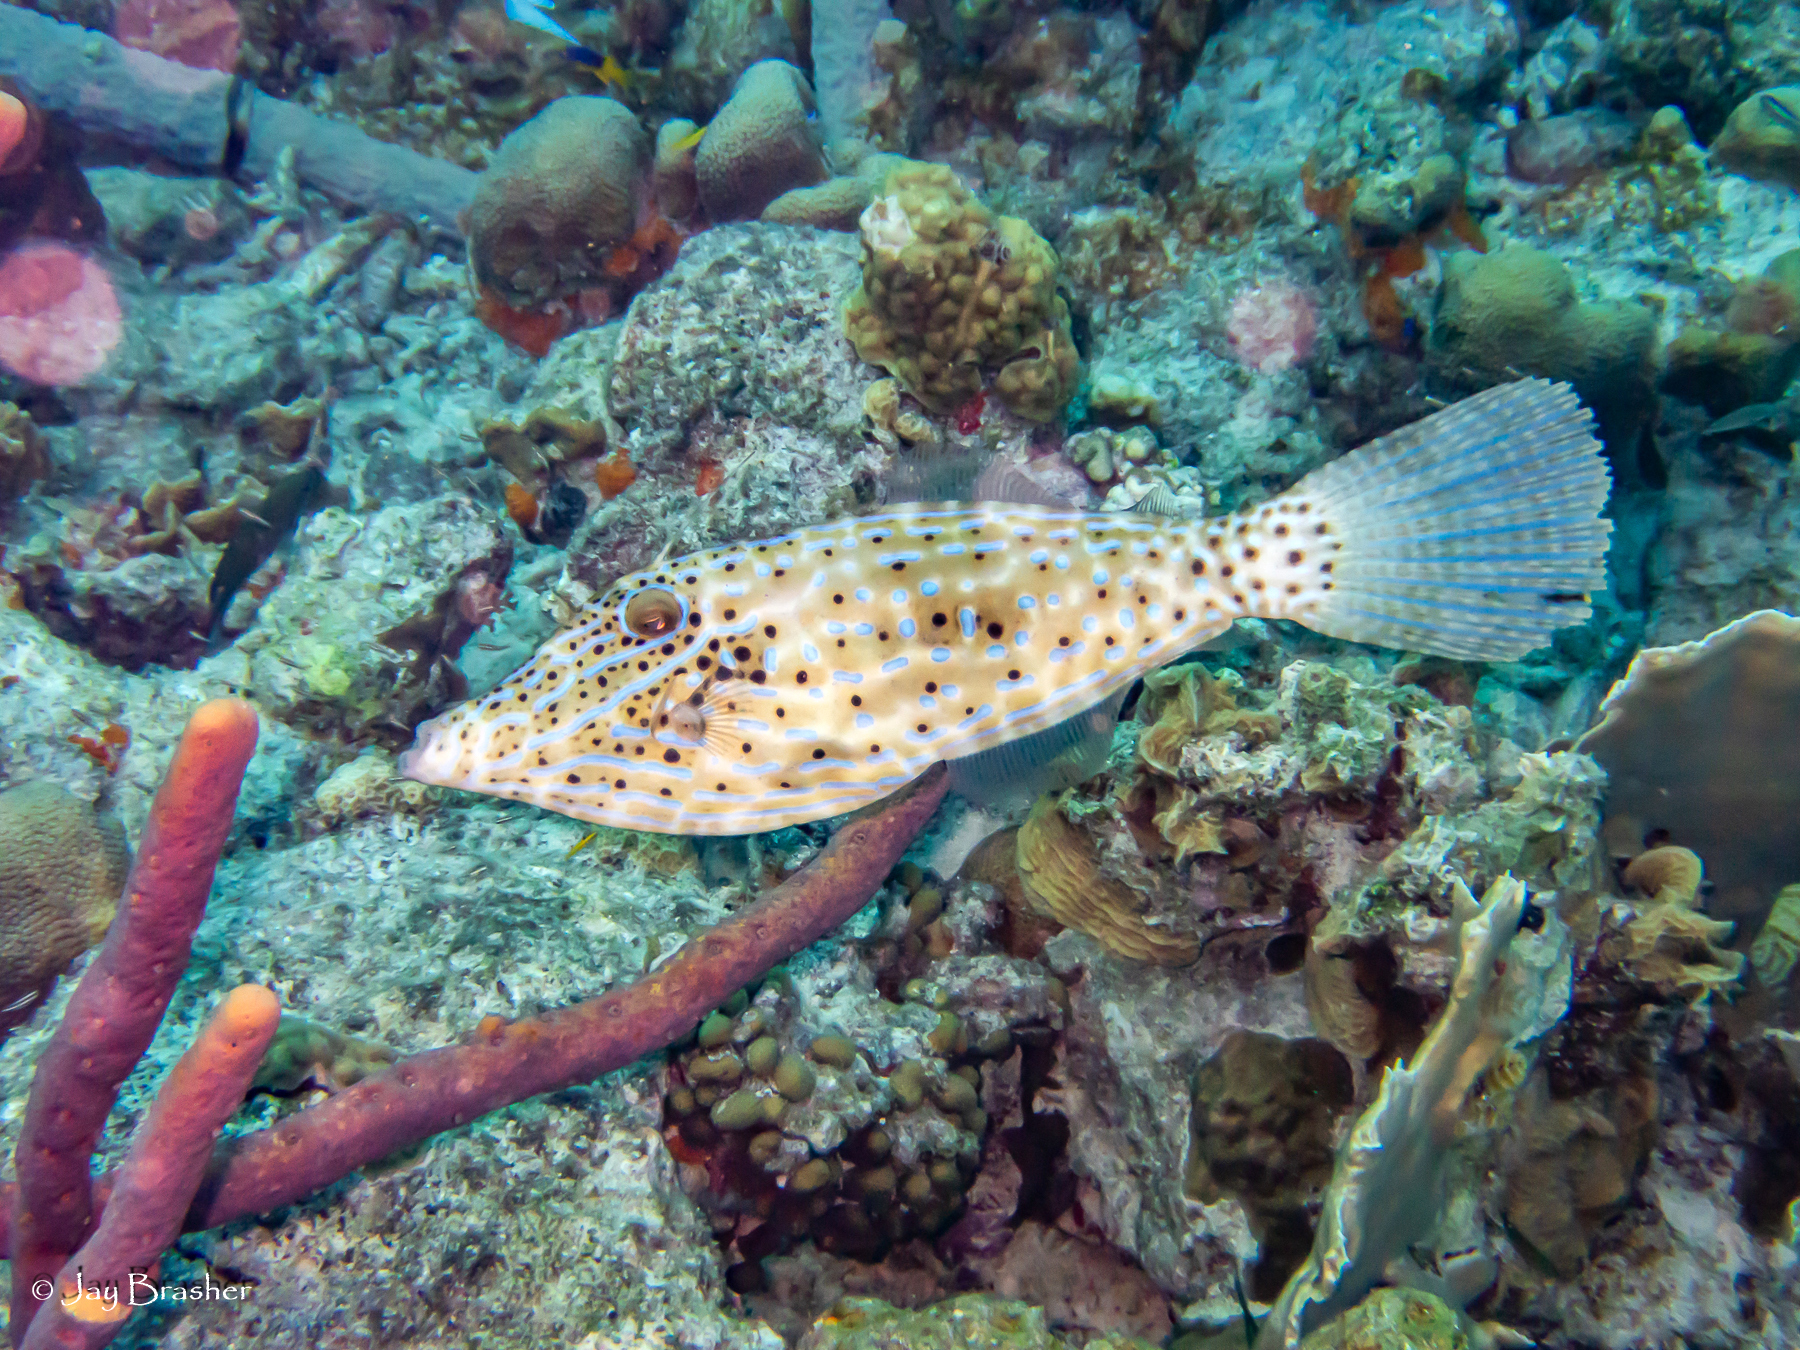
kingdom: Animalia
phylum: Porifera
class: Demospongiae
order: Verongiida
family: Aplysinidae
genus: Aplysina
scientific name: Aplysina cauliformis
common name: Branching candle sponge
